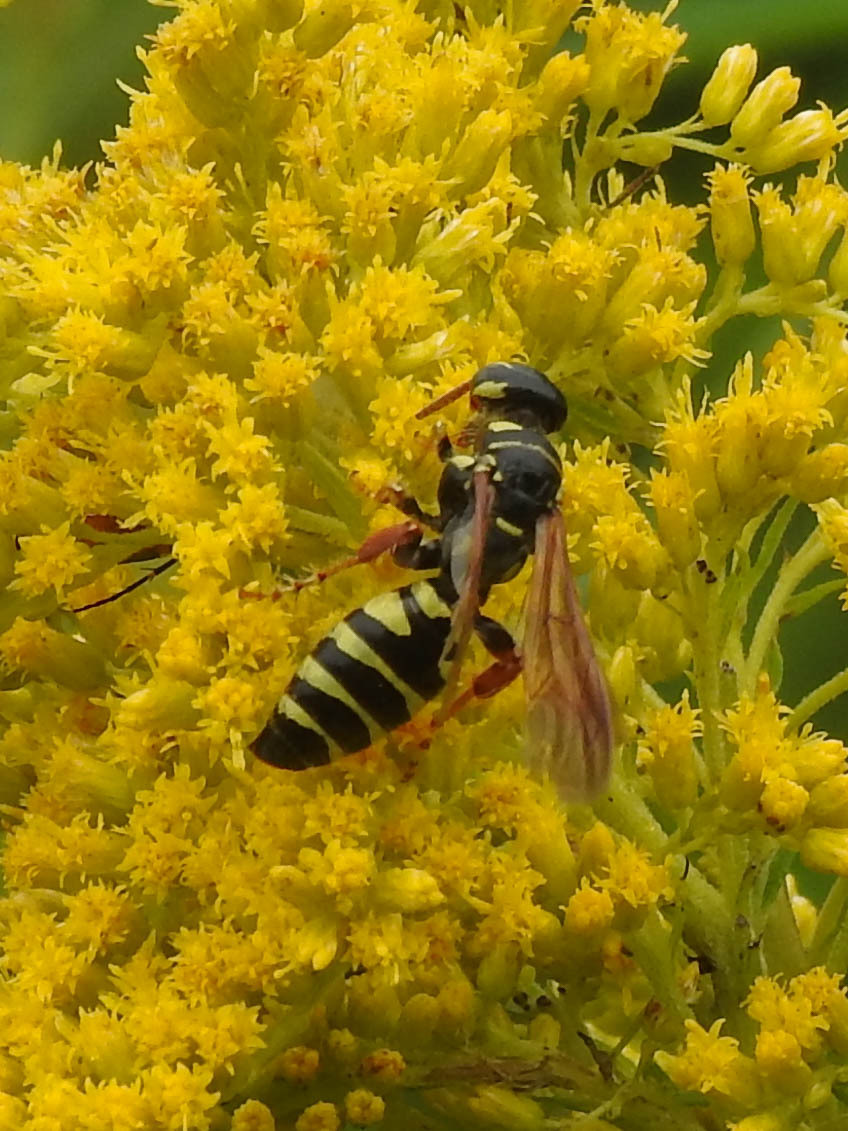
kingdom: Animalia
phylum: Arthropoda
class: Insecta
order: Hymenoptera
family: Tiphiidae
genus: Myzinum
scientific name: Myzinum quinquecinctum
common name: Five-banded thynnid wasp
